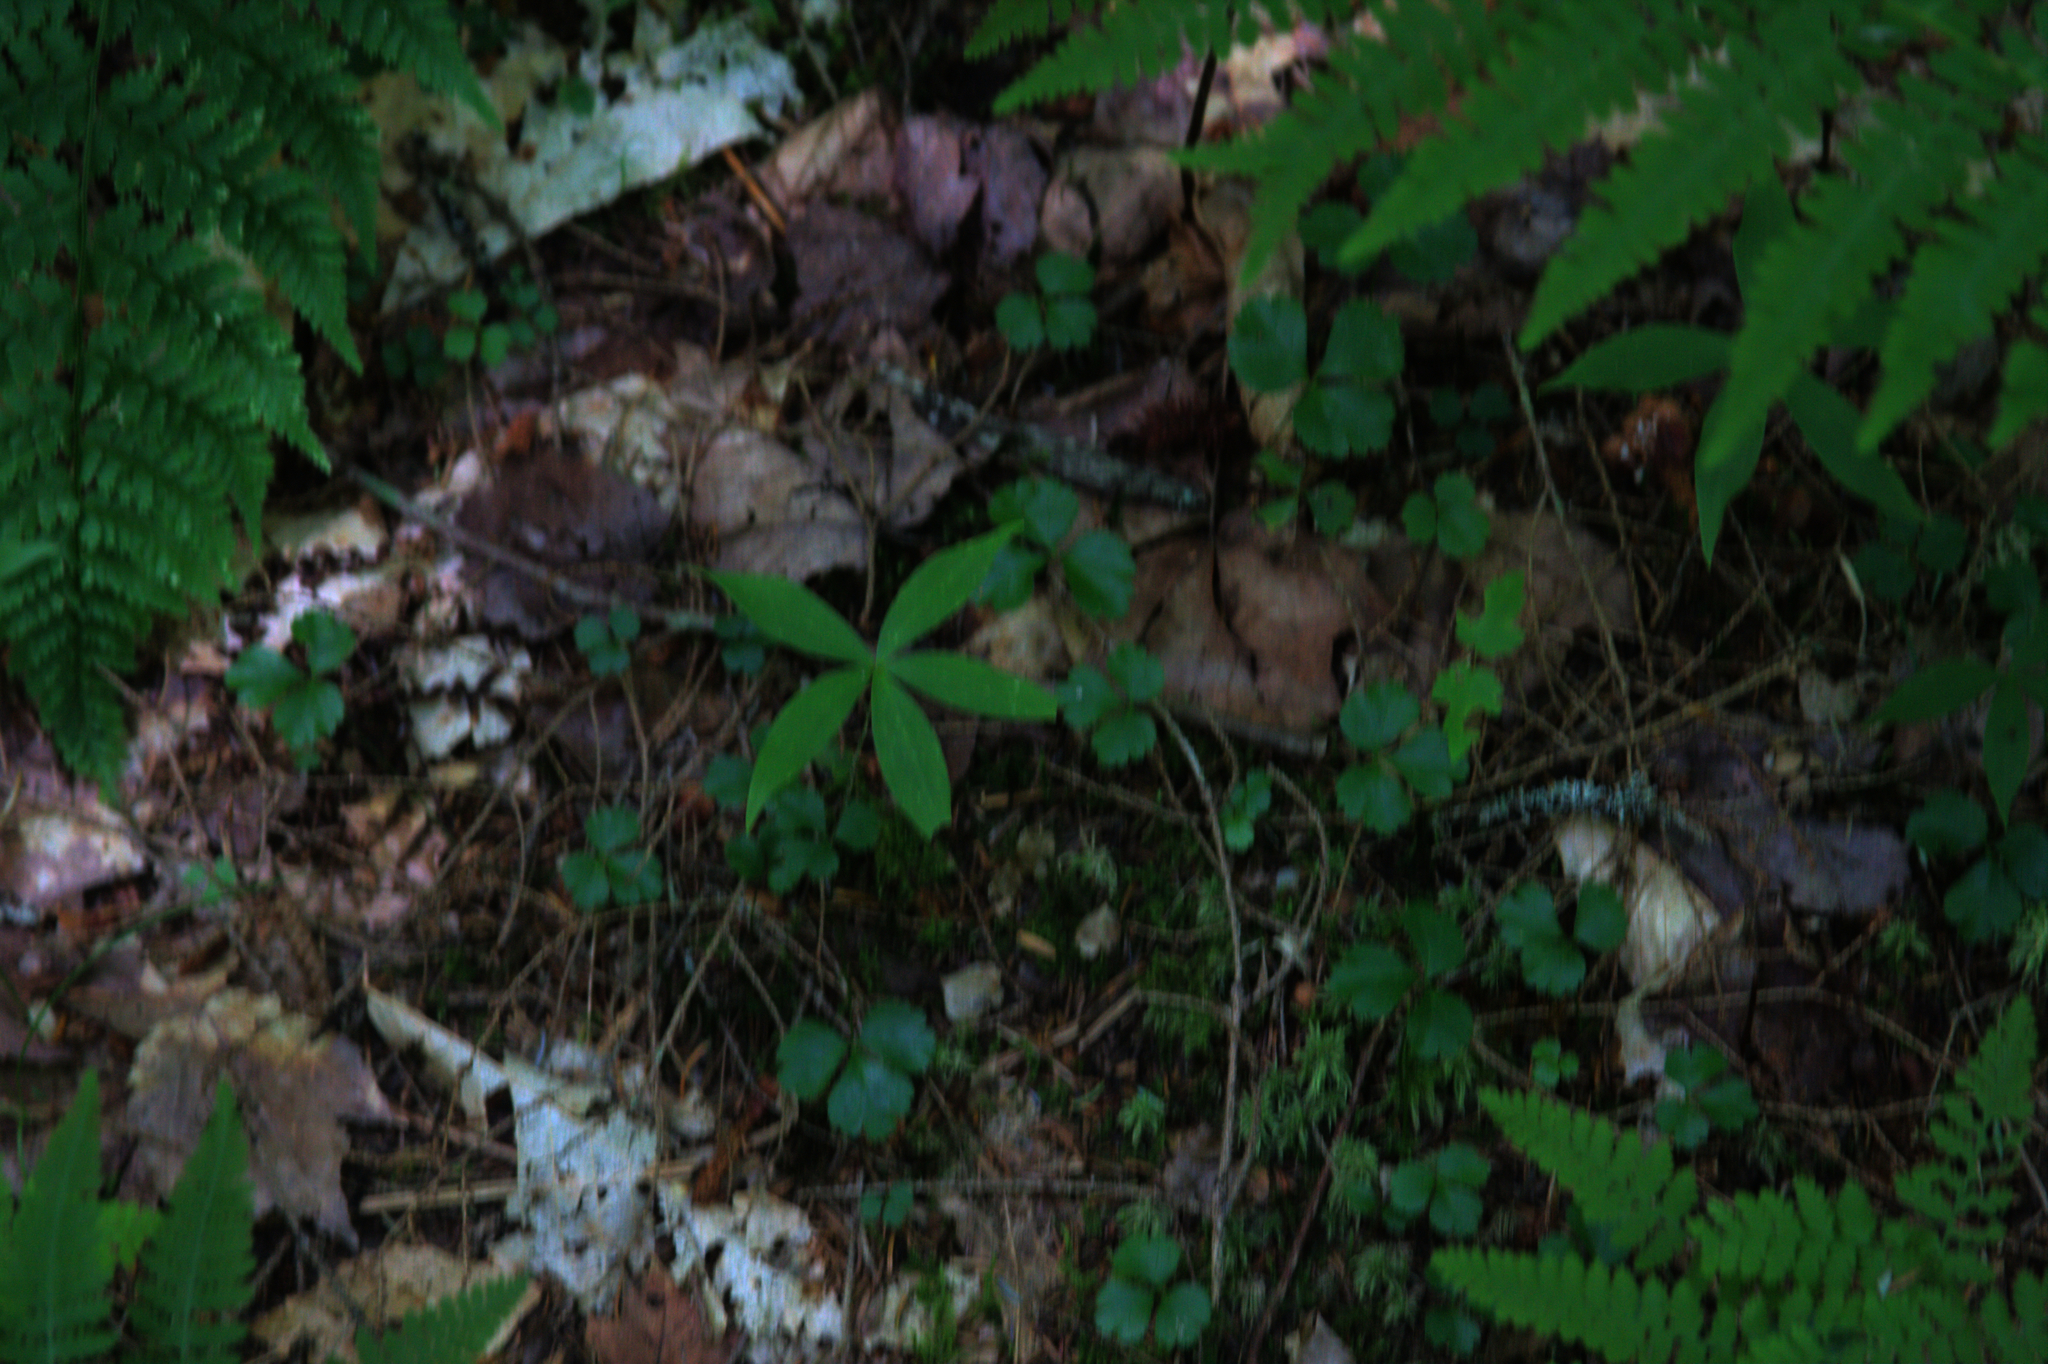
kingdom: Plantae
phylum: Tracheophyta
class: Magnoliopsida
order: Ranunculales
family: Ranunculaceae
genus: Coptis
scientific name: Coptis trifolia
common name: Canker-root
